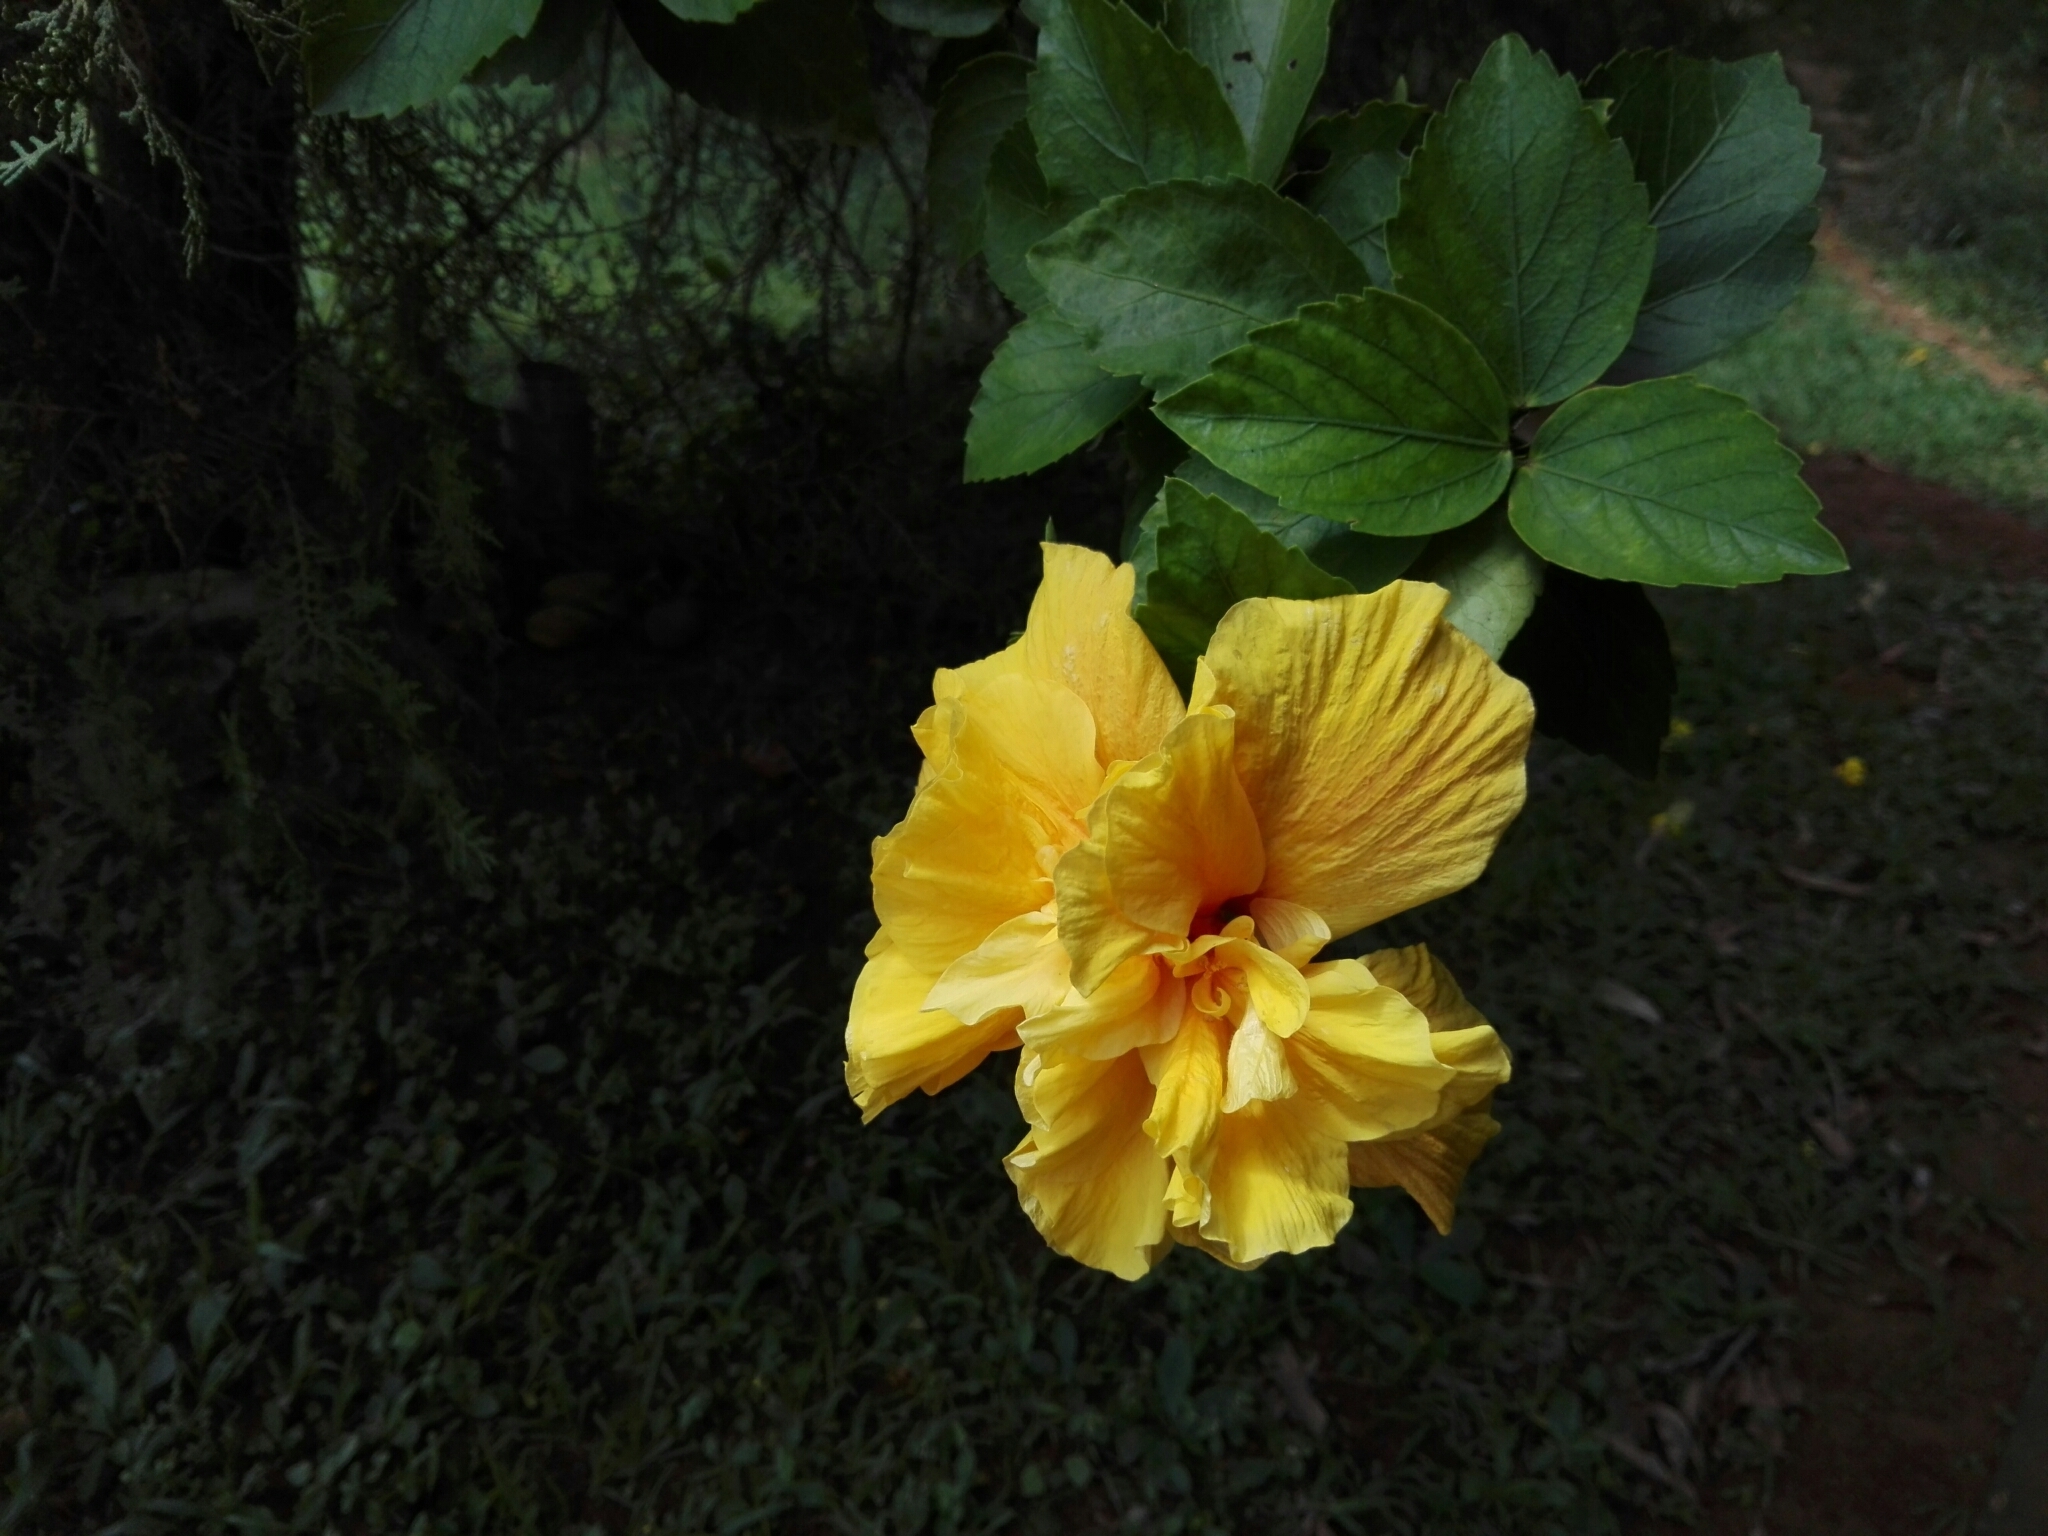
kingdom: Plantae
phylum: Tracheophyta
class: Magnoliopsida
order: Malvales
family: Malvaceae
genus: Hibiscus
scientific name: Hibiscus rosa-sinensis
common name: Hibiscus
